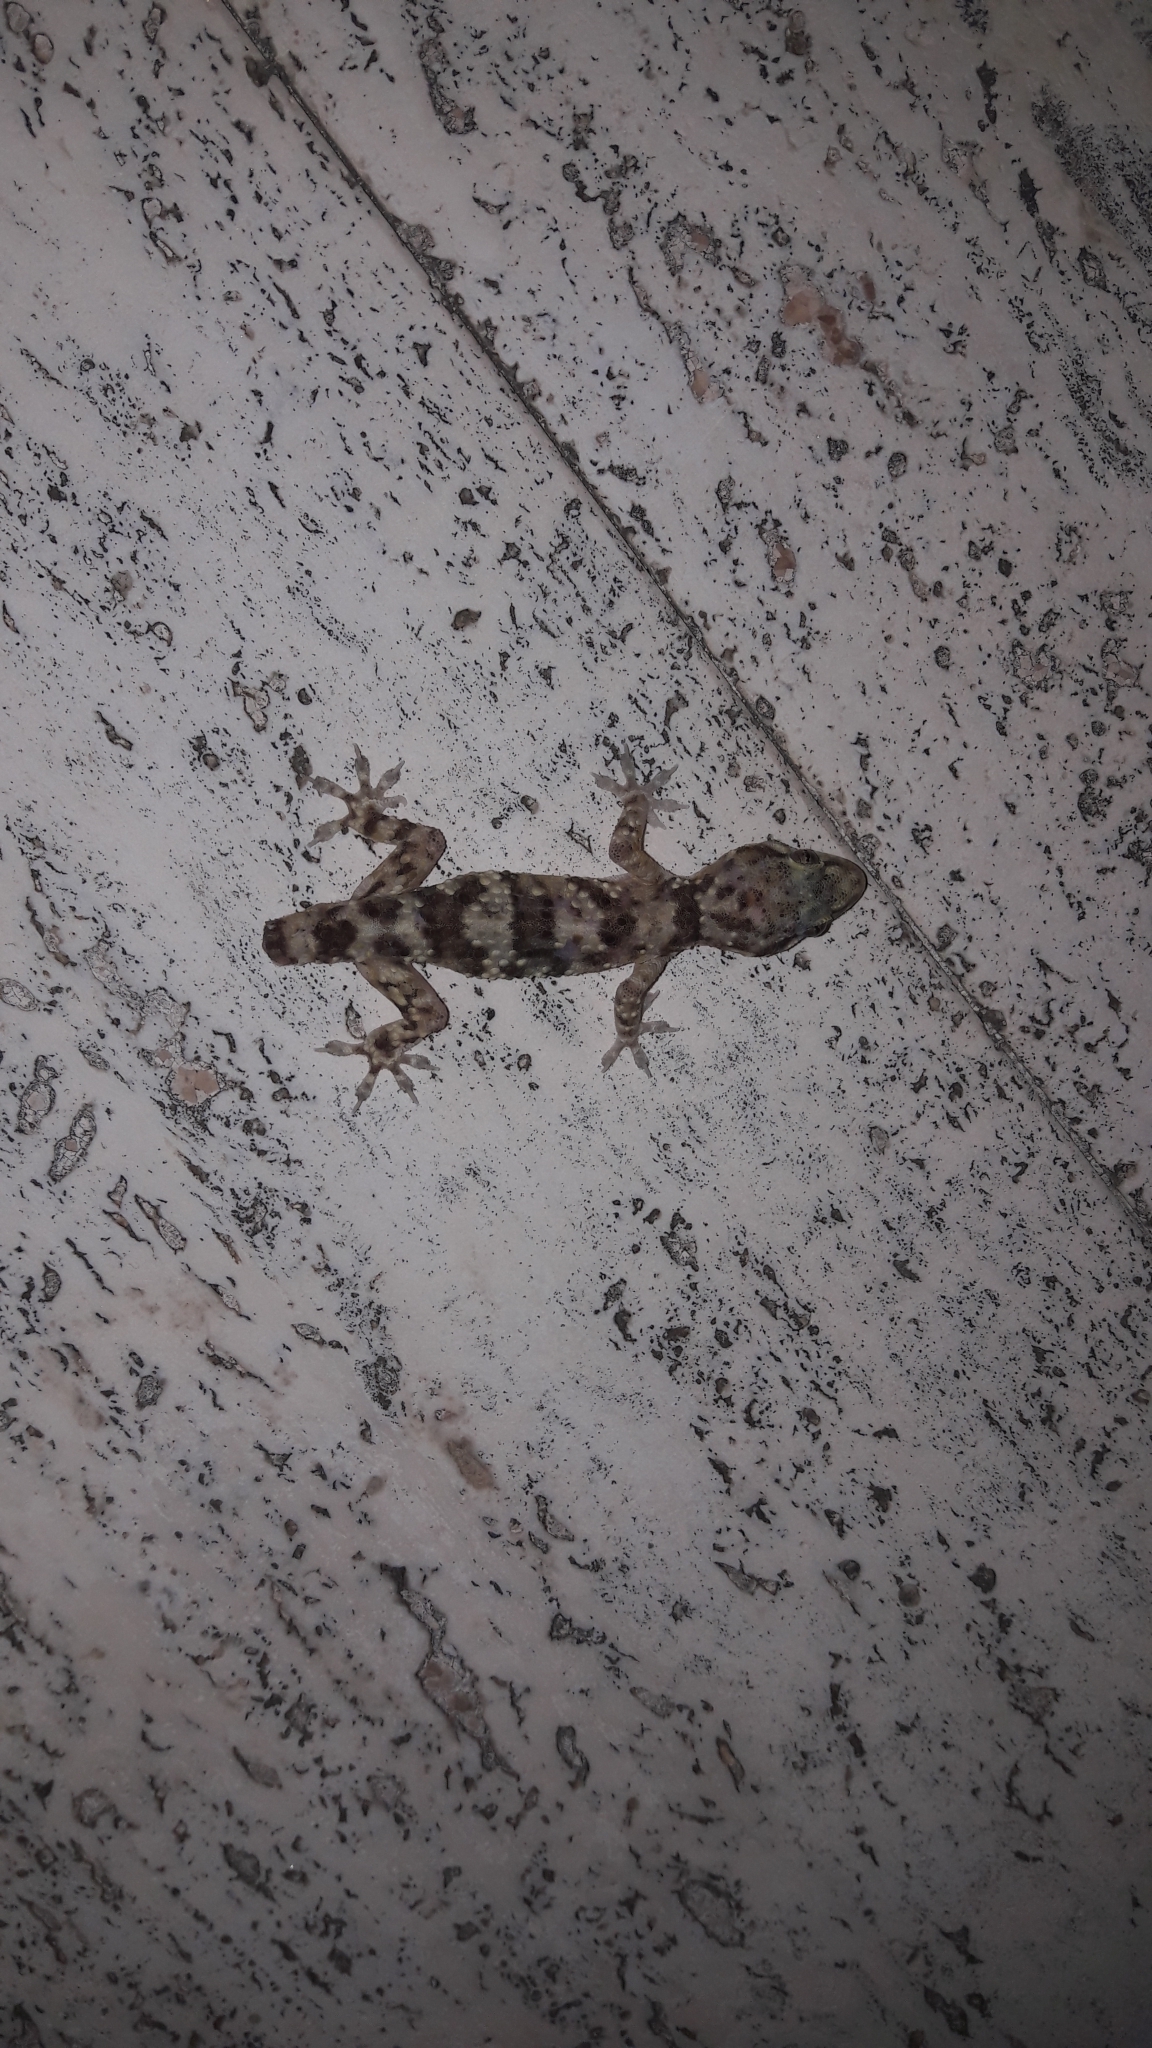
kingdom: Animalia
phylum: Chordata
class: Squamata
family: Gekkonidae
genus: Hemidactylus
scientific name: Hemidactylus turcicus
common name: Turkish gecko
